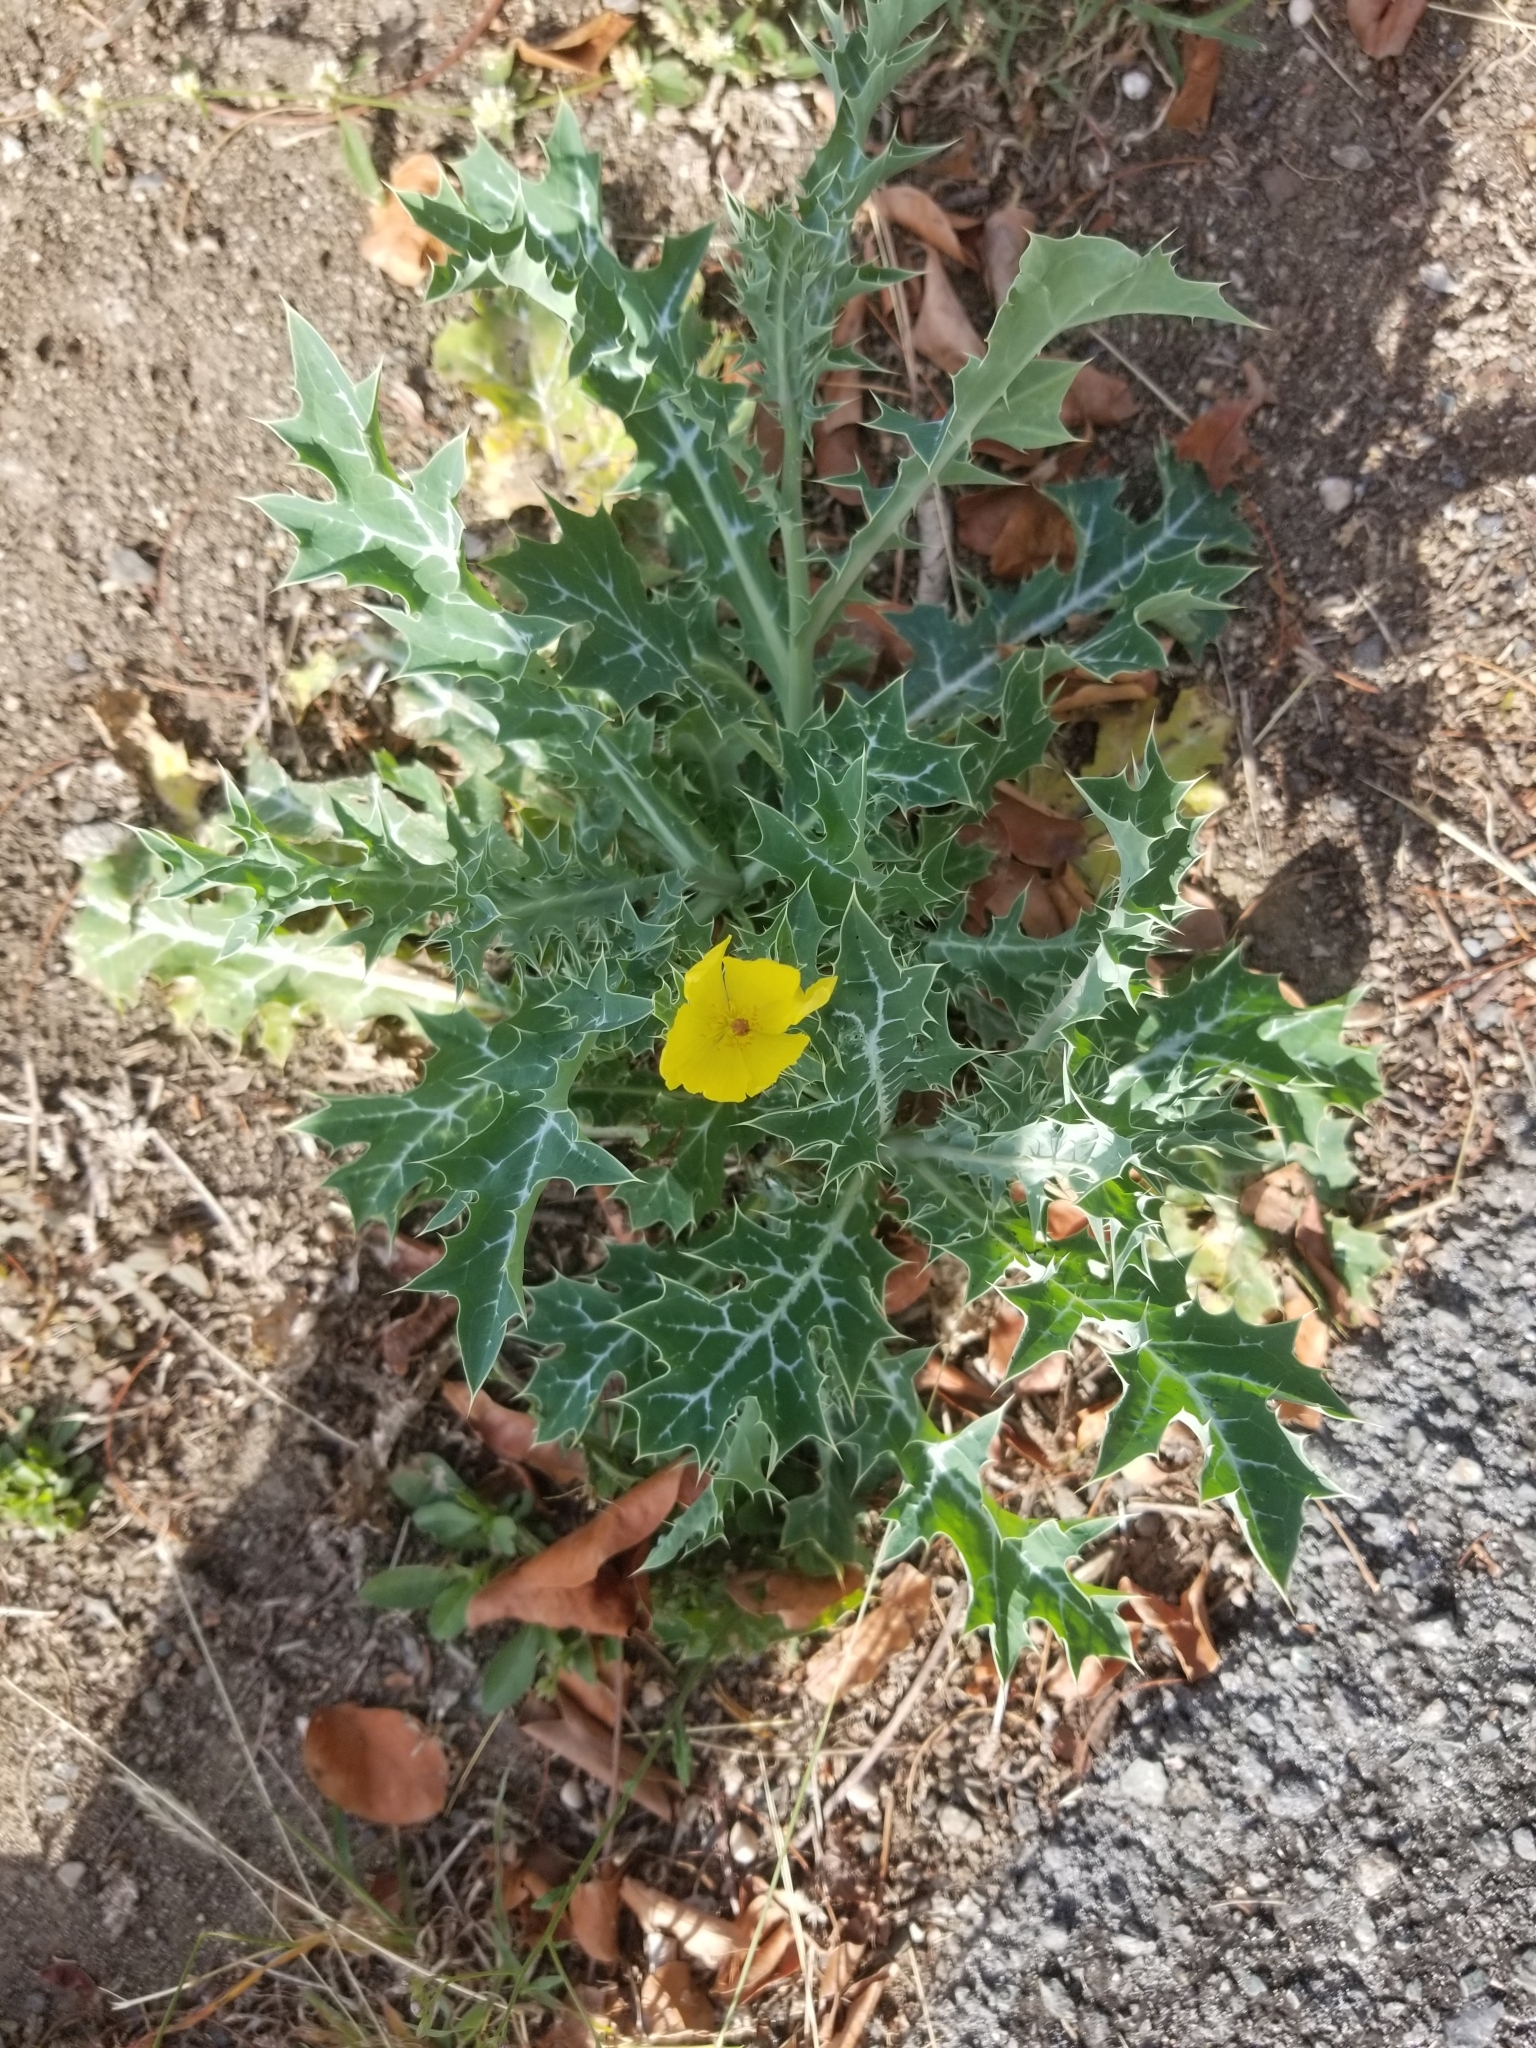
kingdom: Plantae
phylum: Tracheophyta
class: Magnoliopsida
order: Ranunculales
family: Papaveraceae
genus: Argemone
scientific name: Argemone mexicana
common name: Mexican poppy
